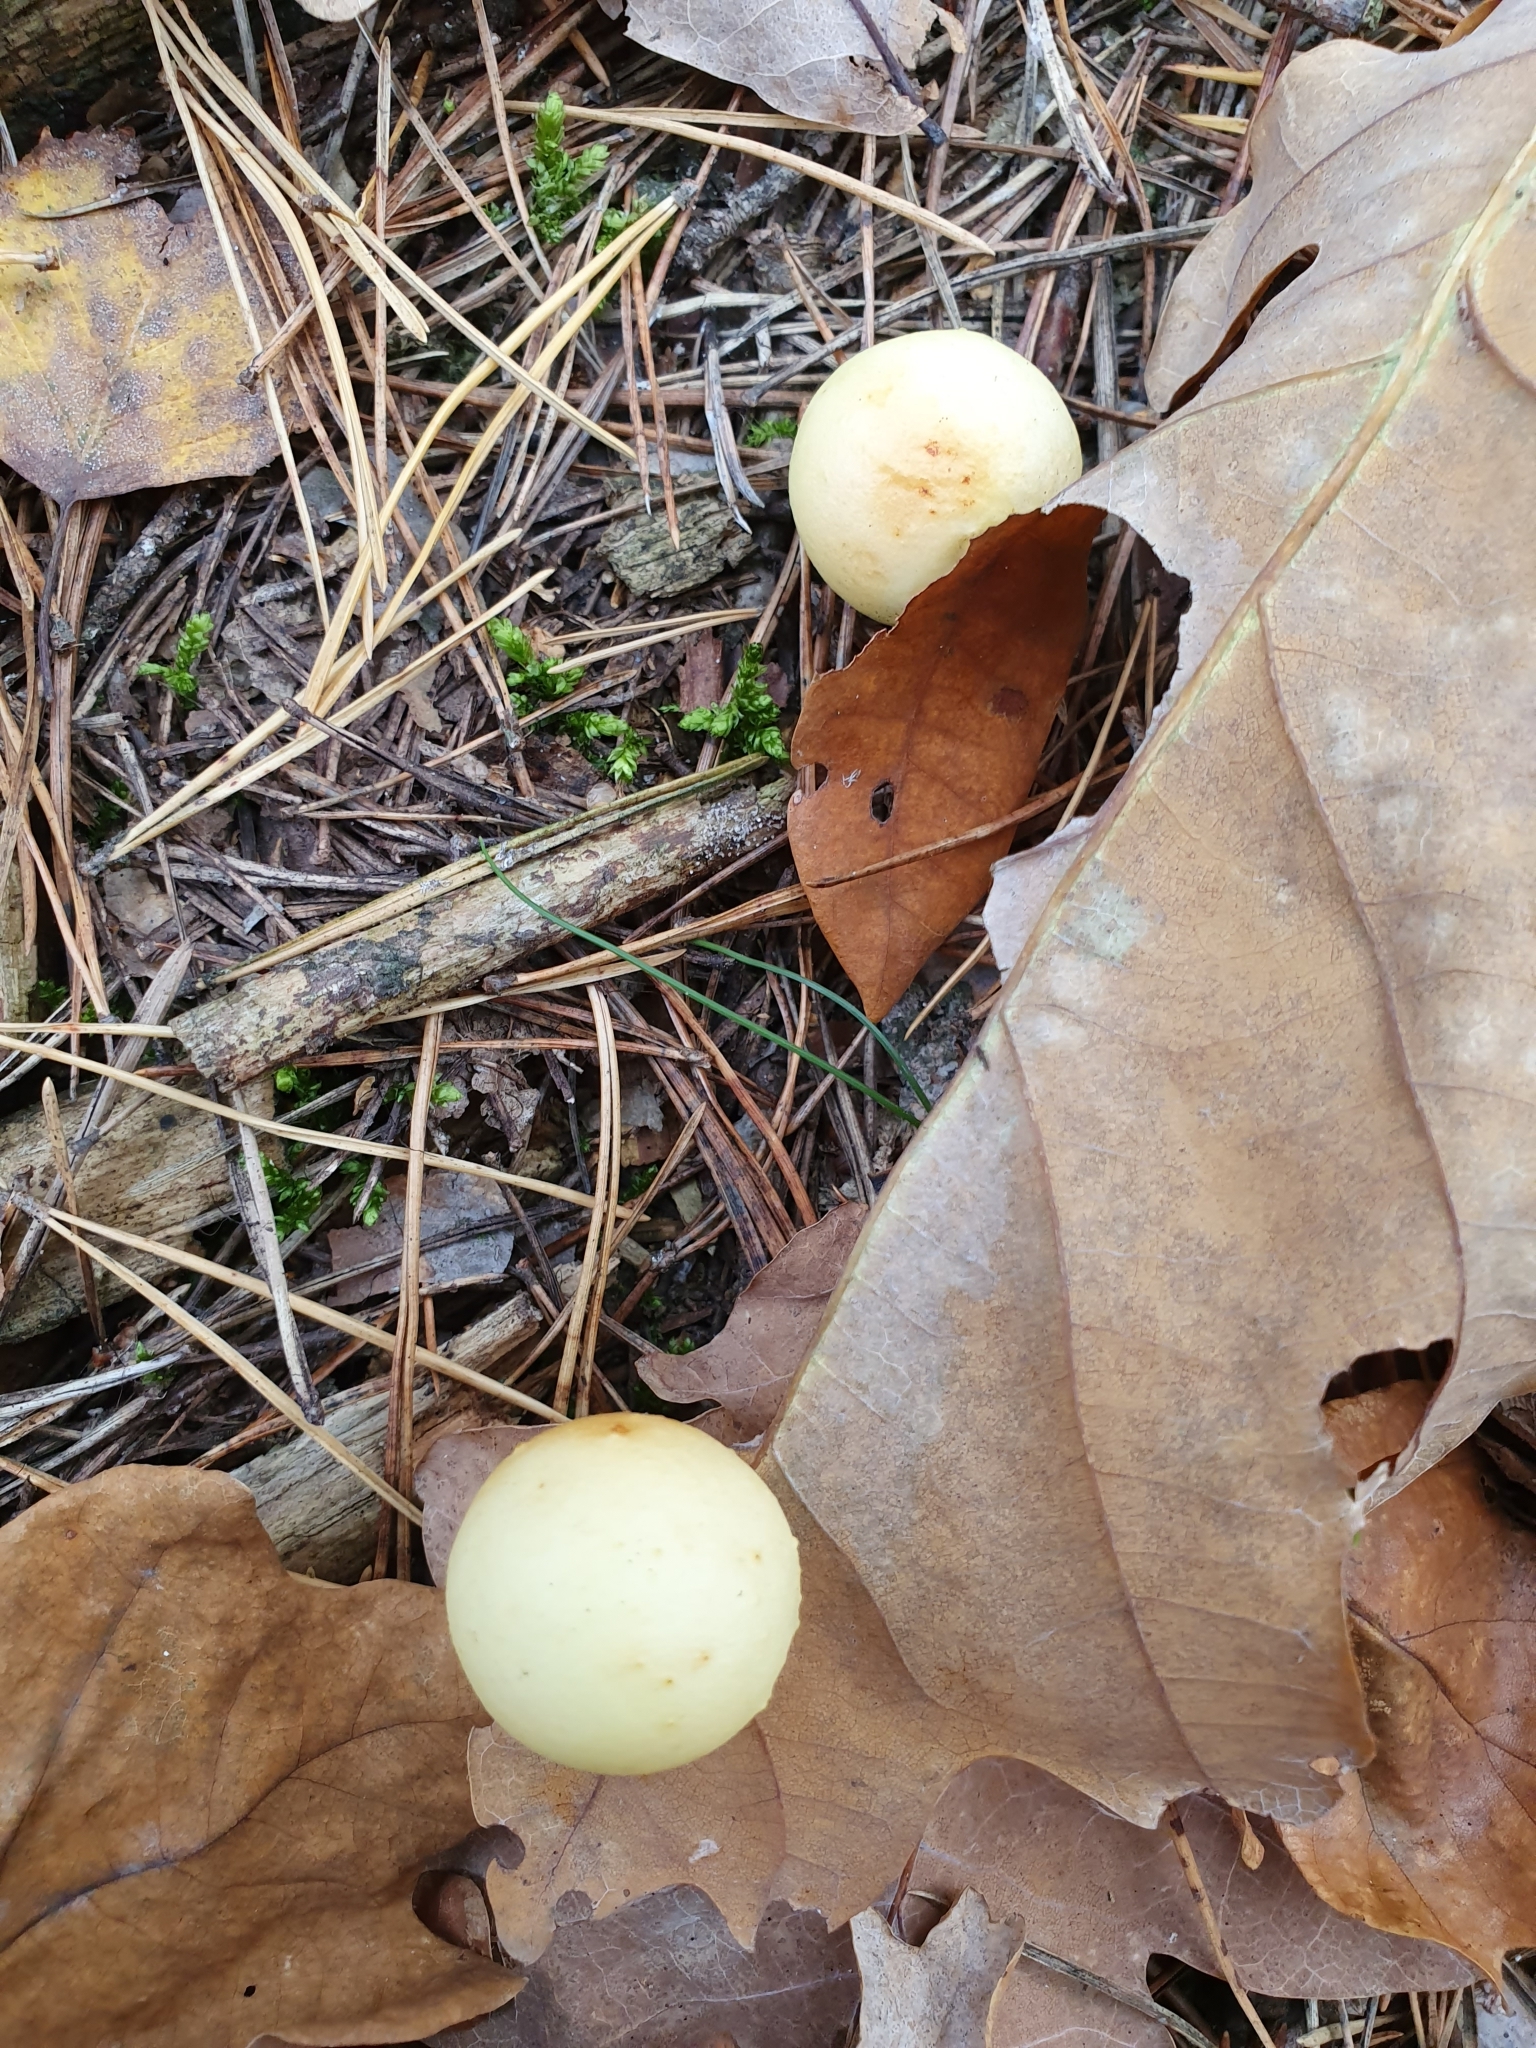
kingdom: Animalia
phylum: Arthropoda
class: Insecta
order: Hymenoptera
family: Cynipidae
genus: Cynips
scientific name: Cynips quercusfolii
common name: Cherry gall
